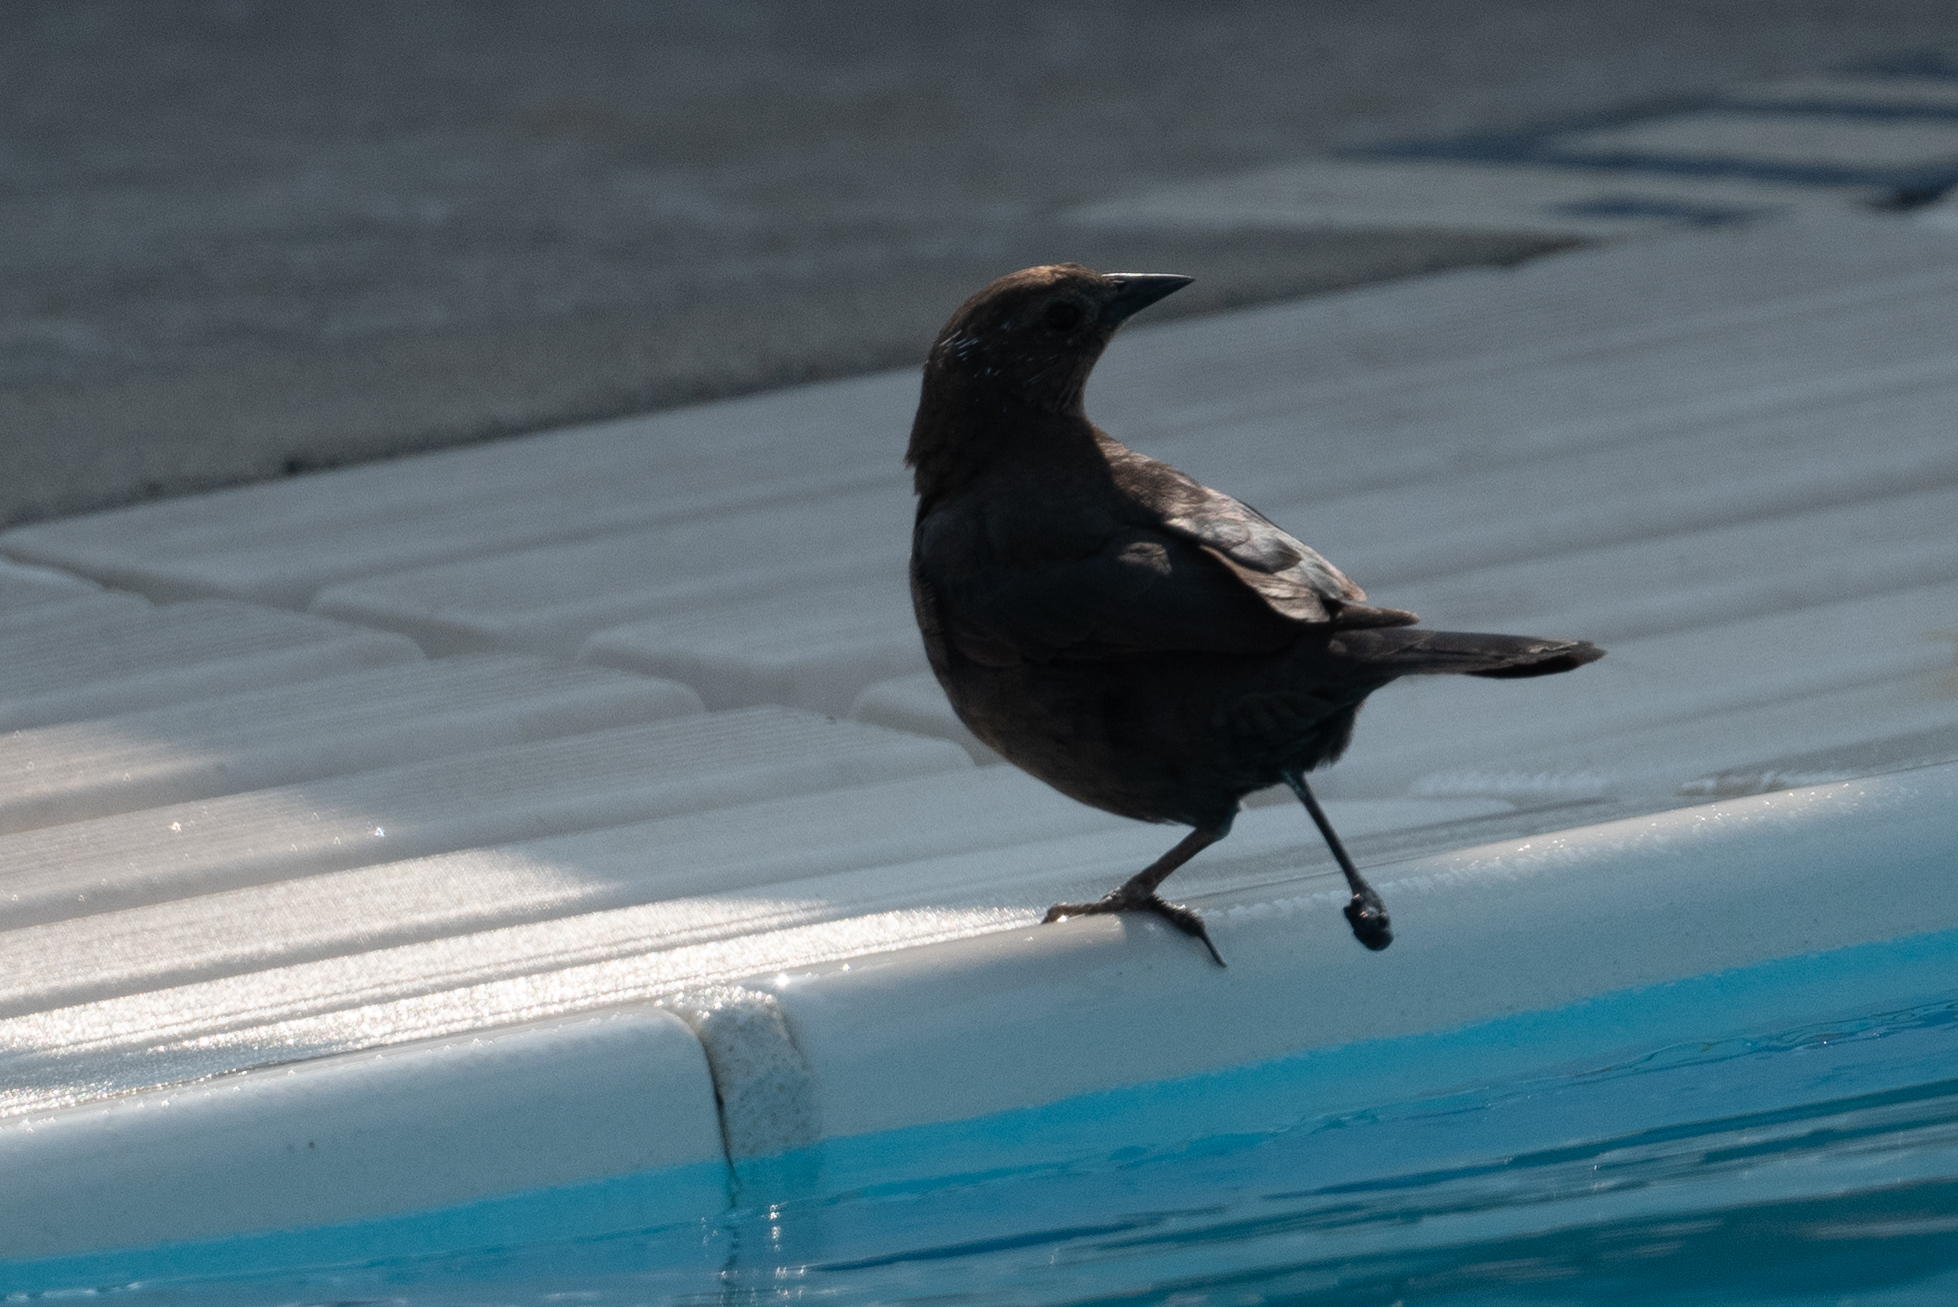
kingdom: Animalia
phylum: Chordata
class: Aves
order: Passeriformes
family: Icteridae
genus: Euphagus
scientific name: Euphagus cyanocephalus
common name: Brewer's blackbird
